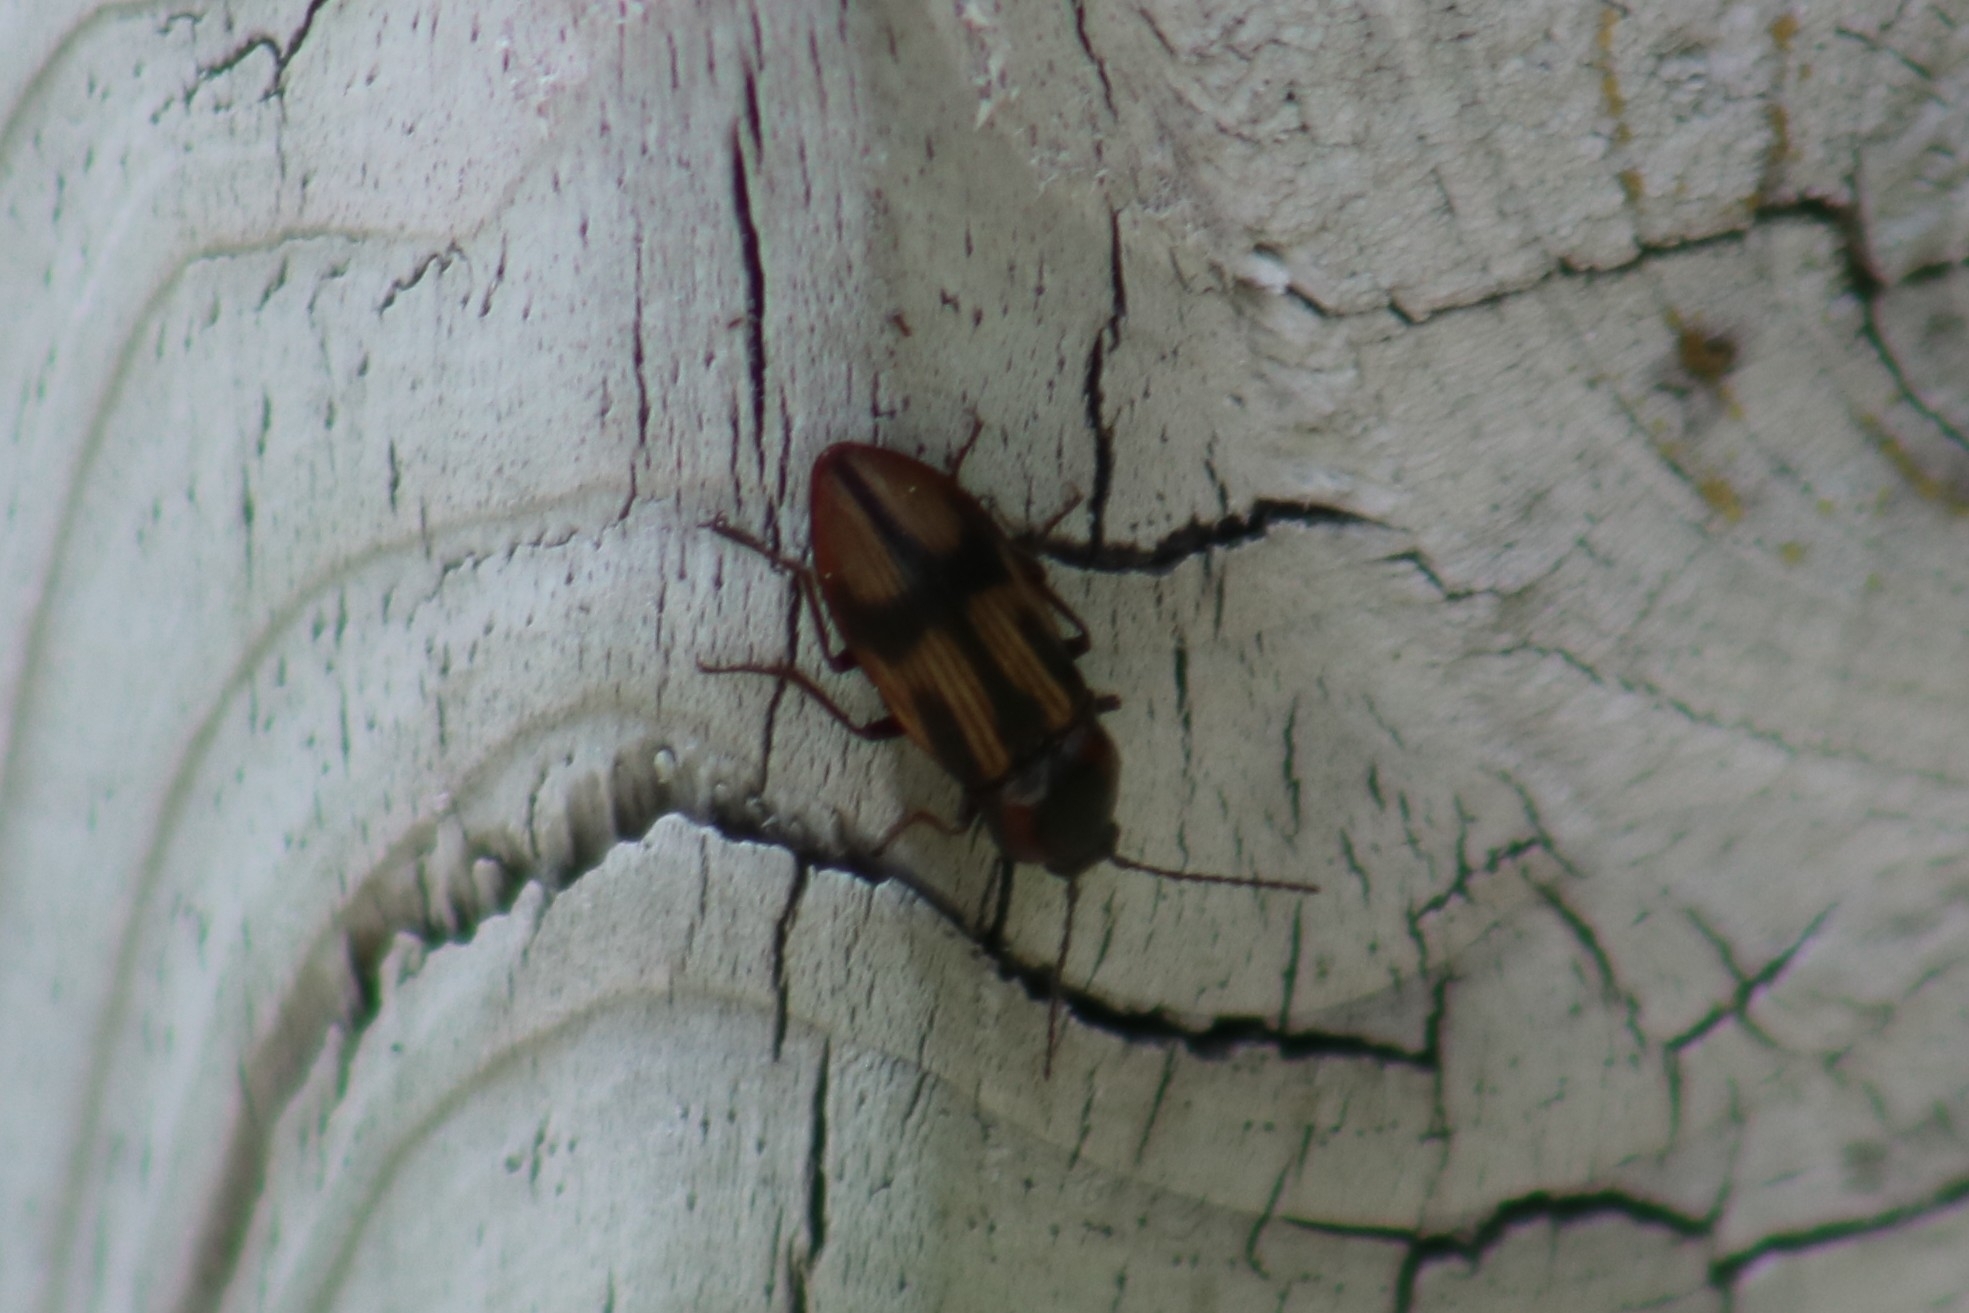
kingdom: Animalia
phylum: Arthropoda
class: Insecta
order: Coleoptera
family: Elateridae
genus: Selatosomus
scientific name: Selatosomus pulcher
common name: Noble click beetle
